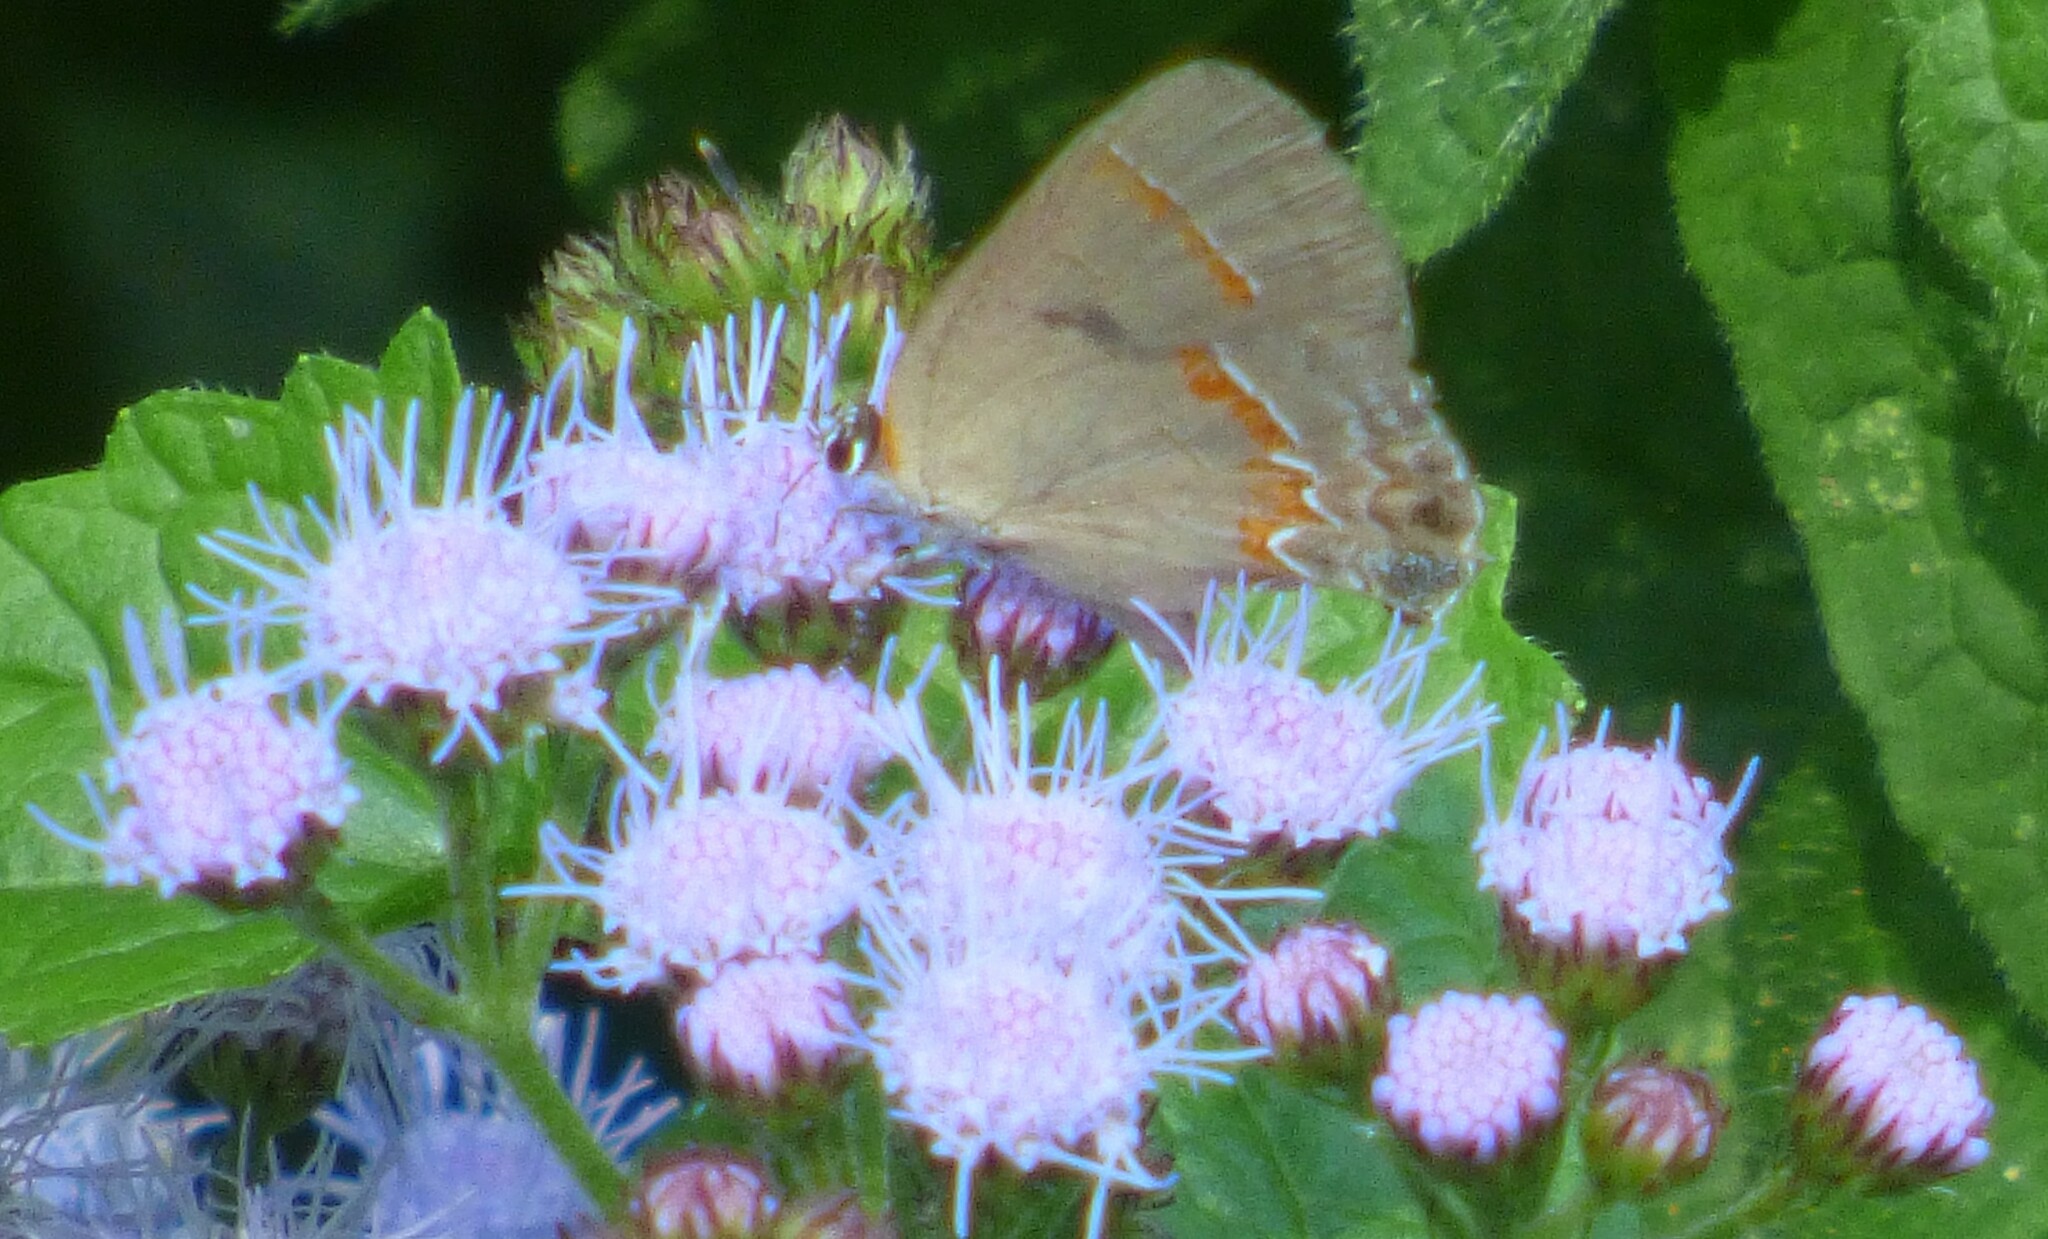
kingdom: Animalia
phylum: Arthropoda
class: Insecta
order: Lepidoptera
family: Lycaenidae
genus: Calycopis
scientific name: Calycopis cecrops
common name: Red-banded hairstreak
